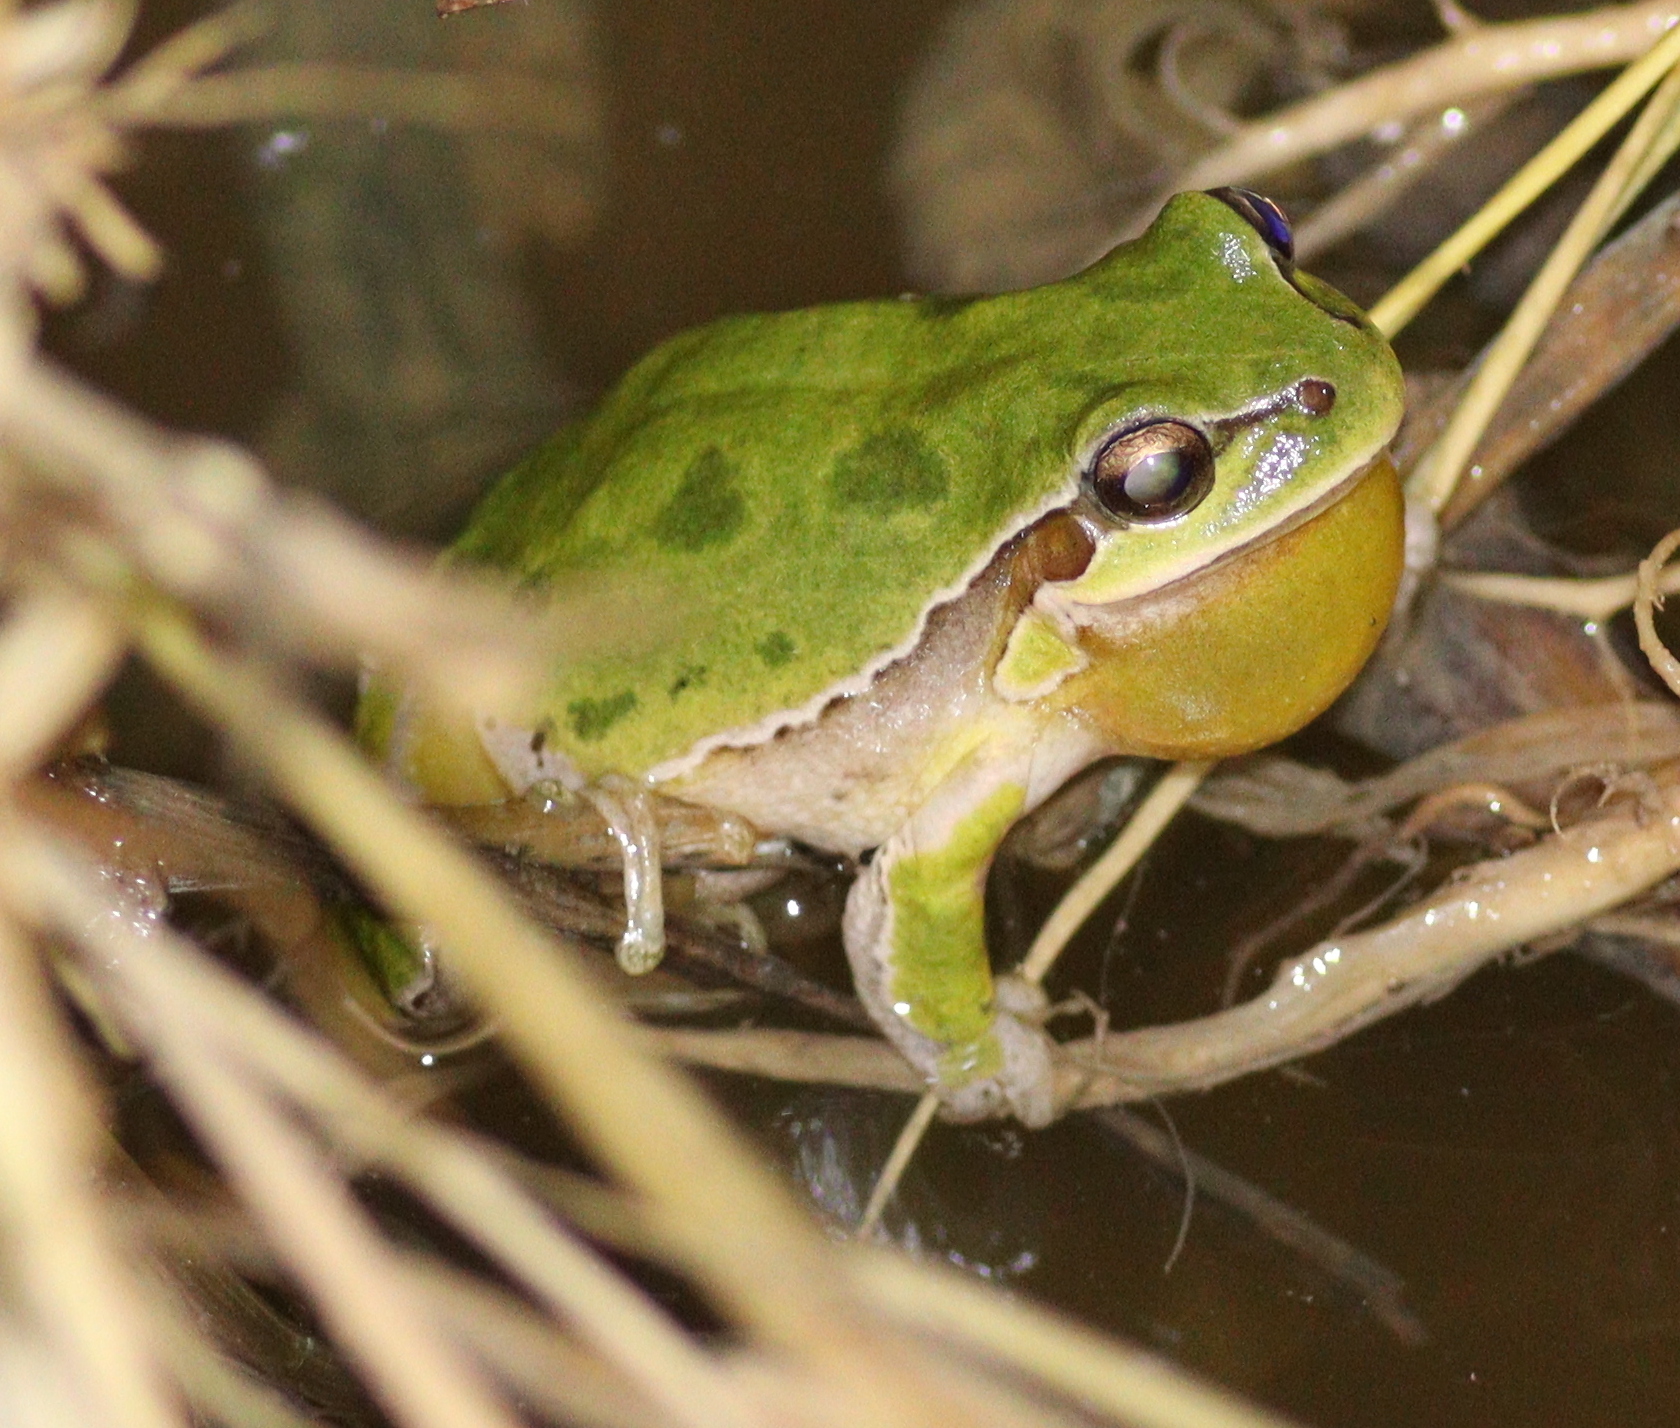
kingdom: Animalia
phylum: Chordata
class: Amphibia
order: Anura
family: Hylidae
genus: Hyla
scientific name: Hyla savignyi
